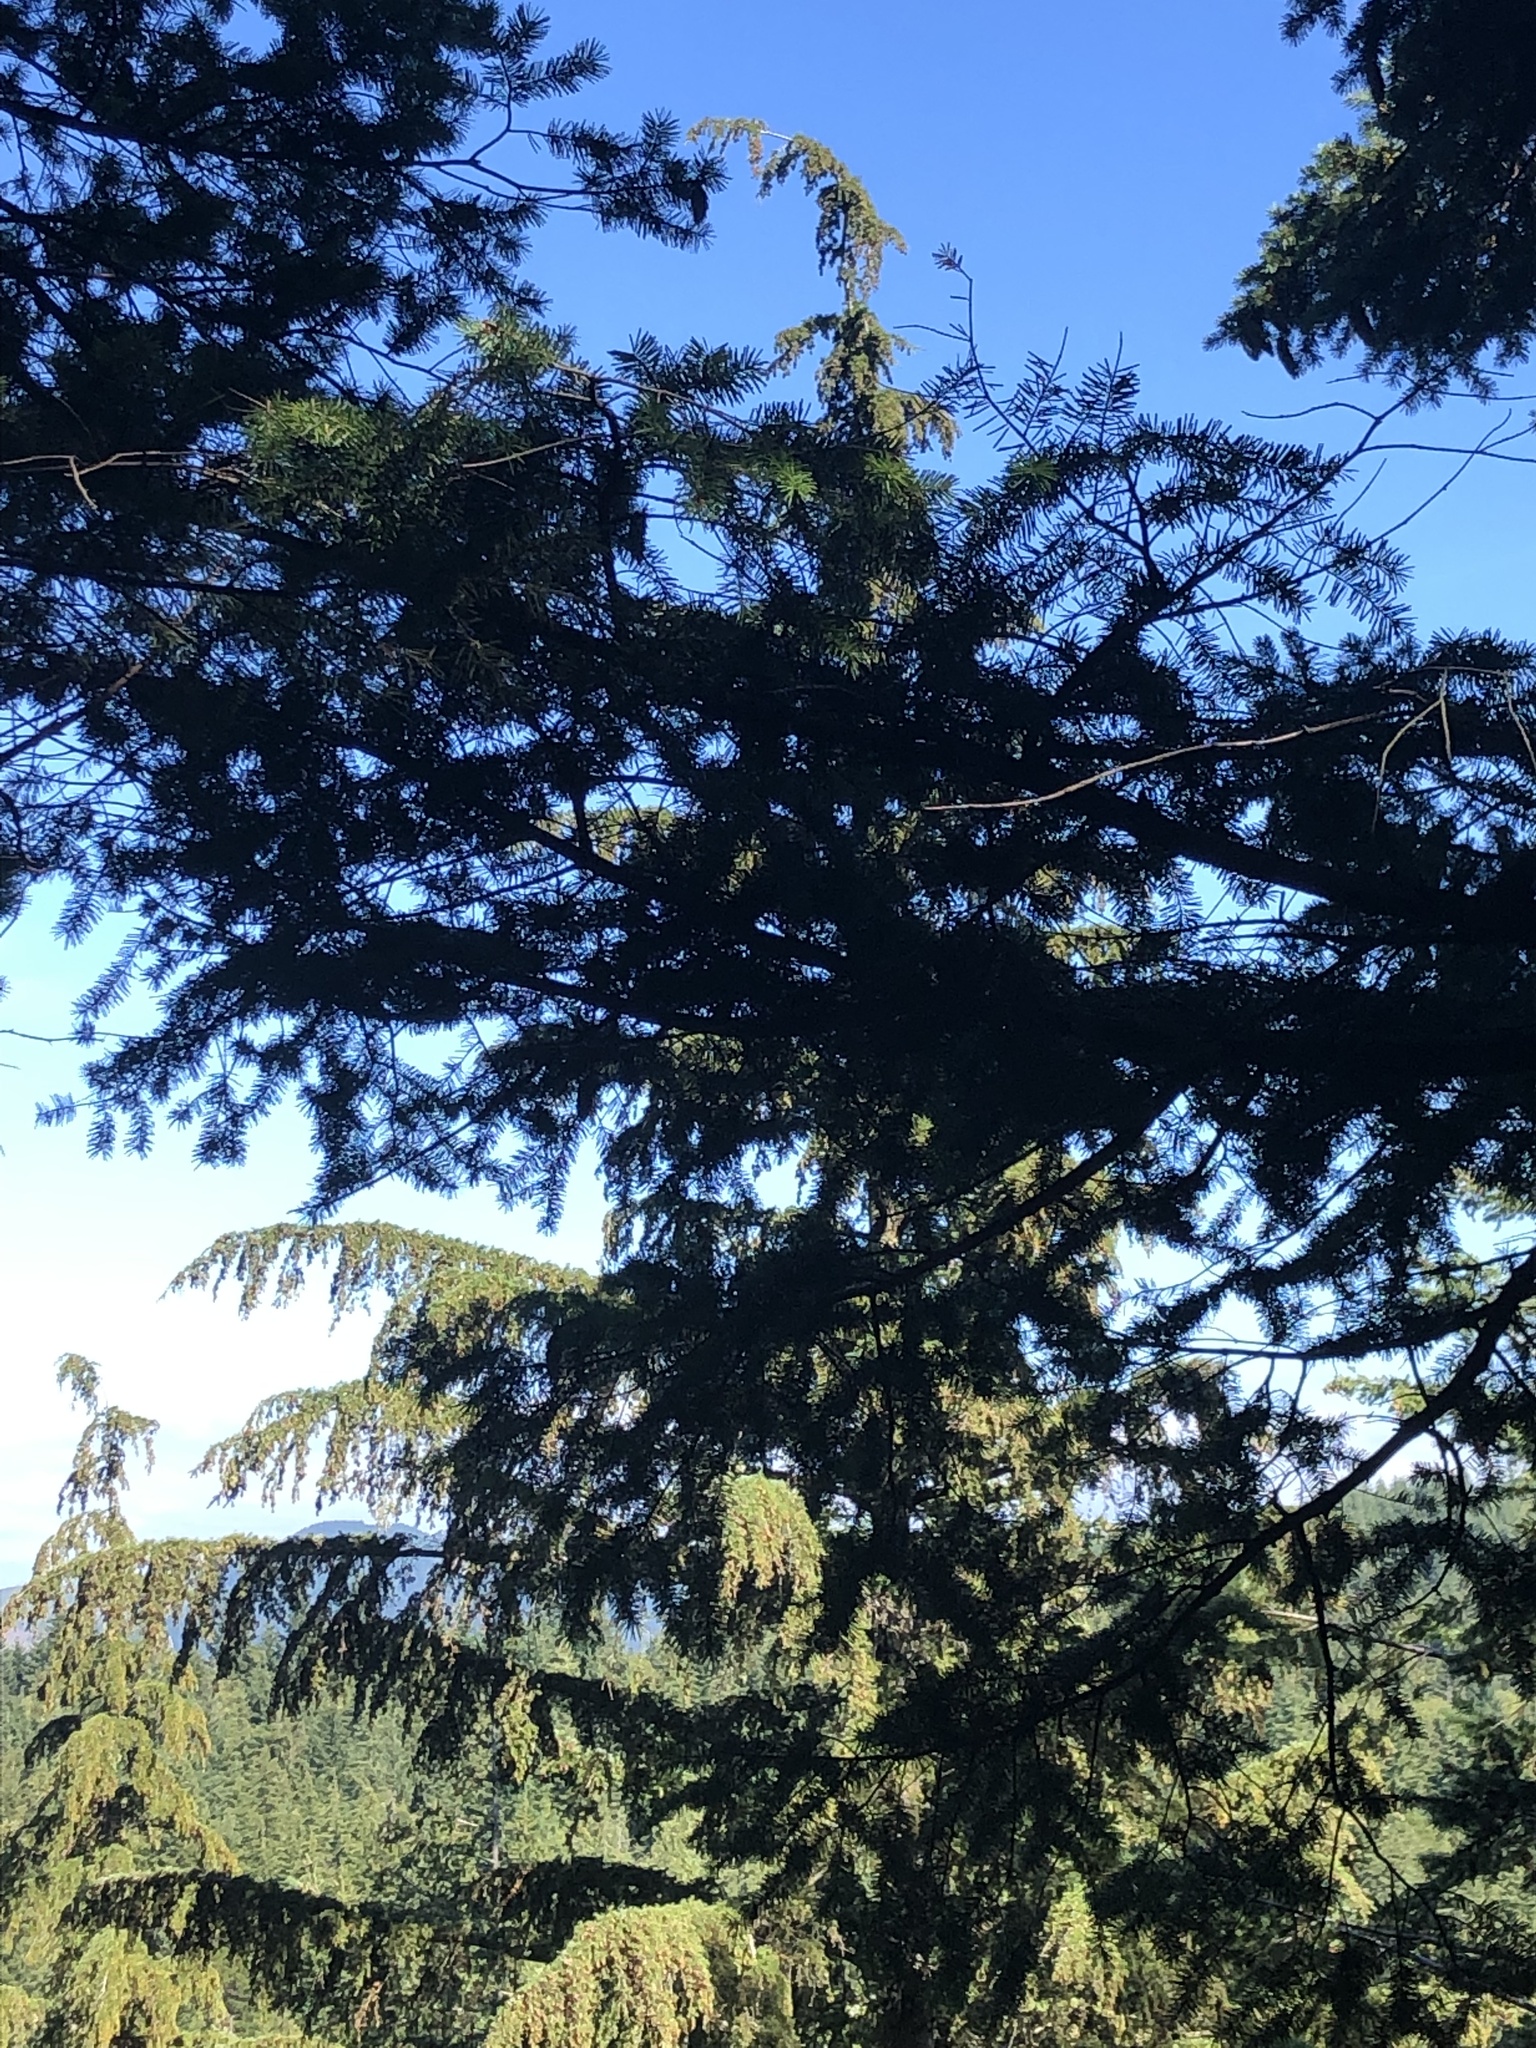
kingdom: Plantae
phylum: Tracheophyta
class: Pinopsida
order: Pinales
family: Pinaceae
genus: Tsuga
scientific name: Tsuga heterophylla
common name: Western hemlock
